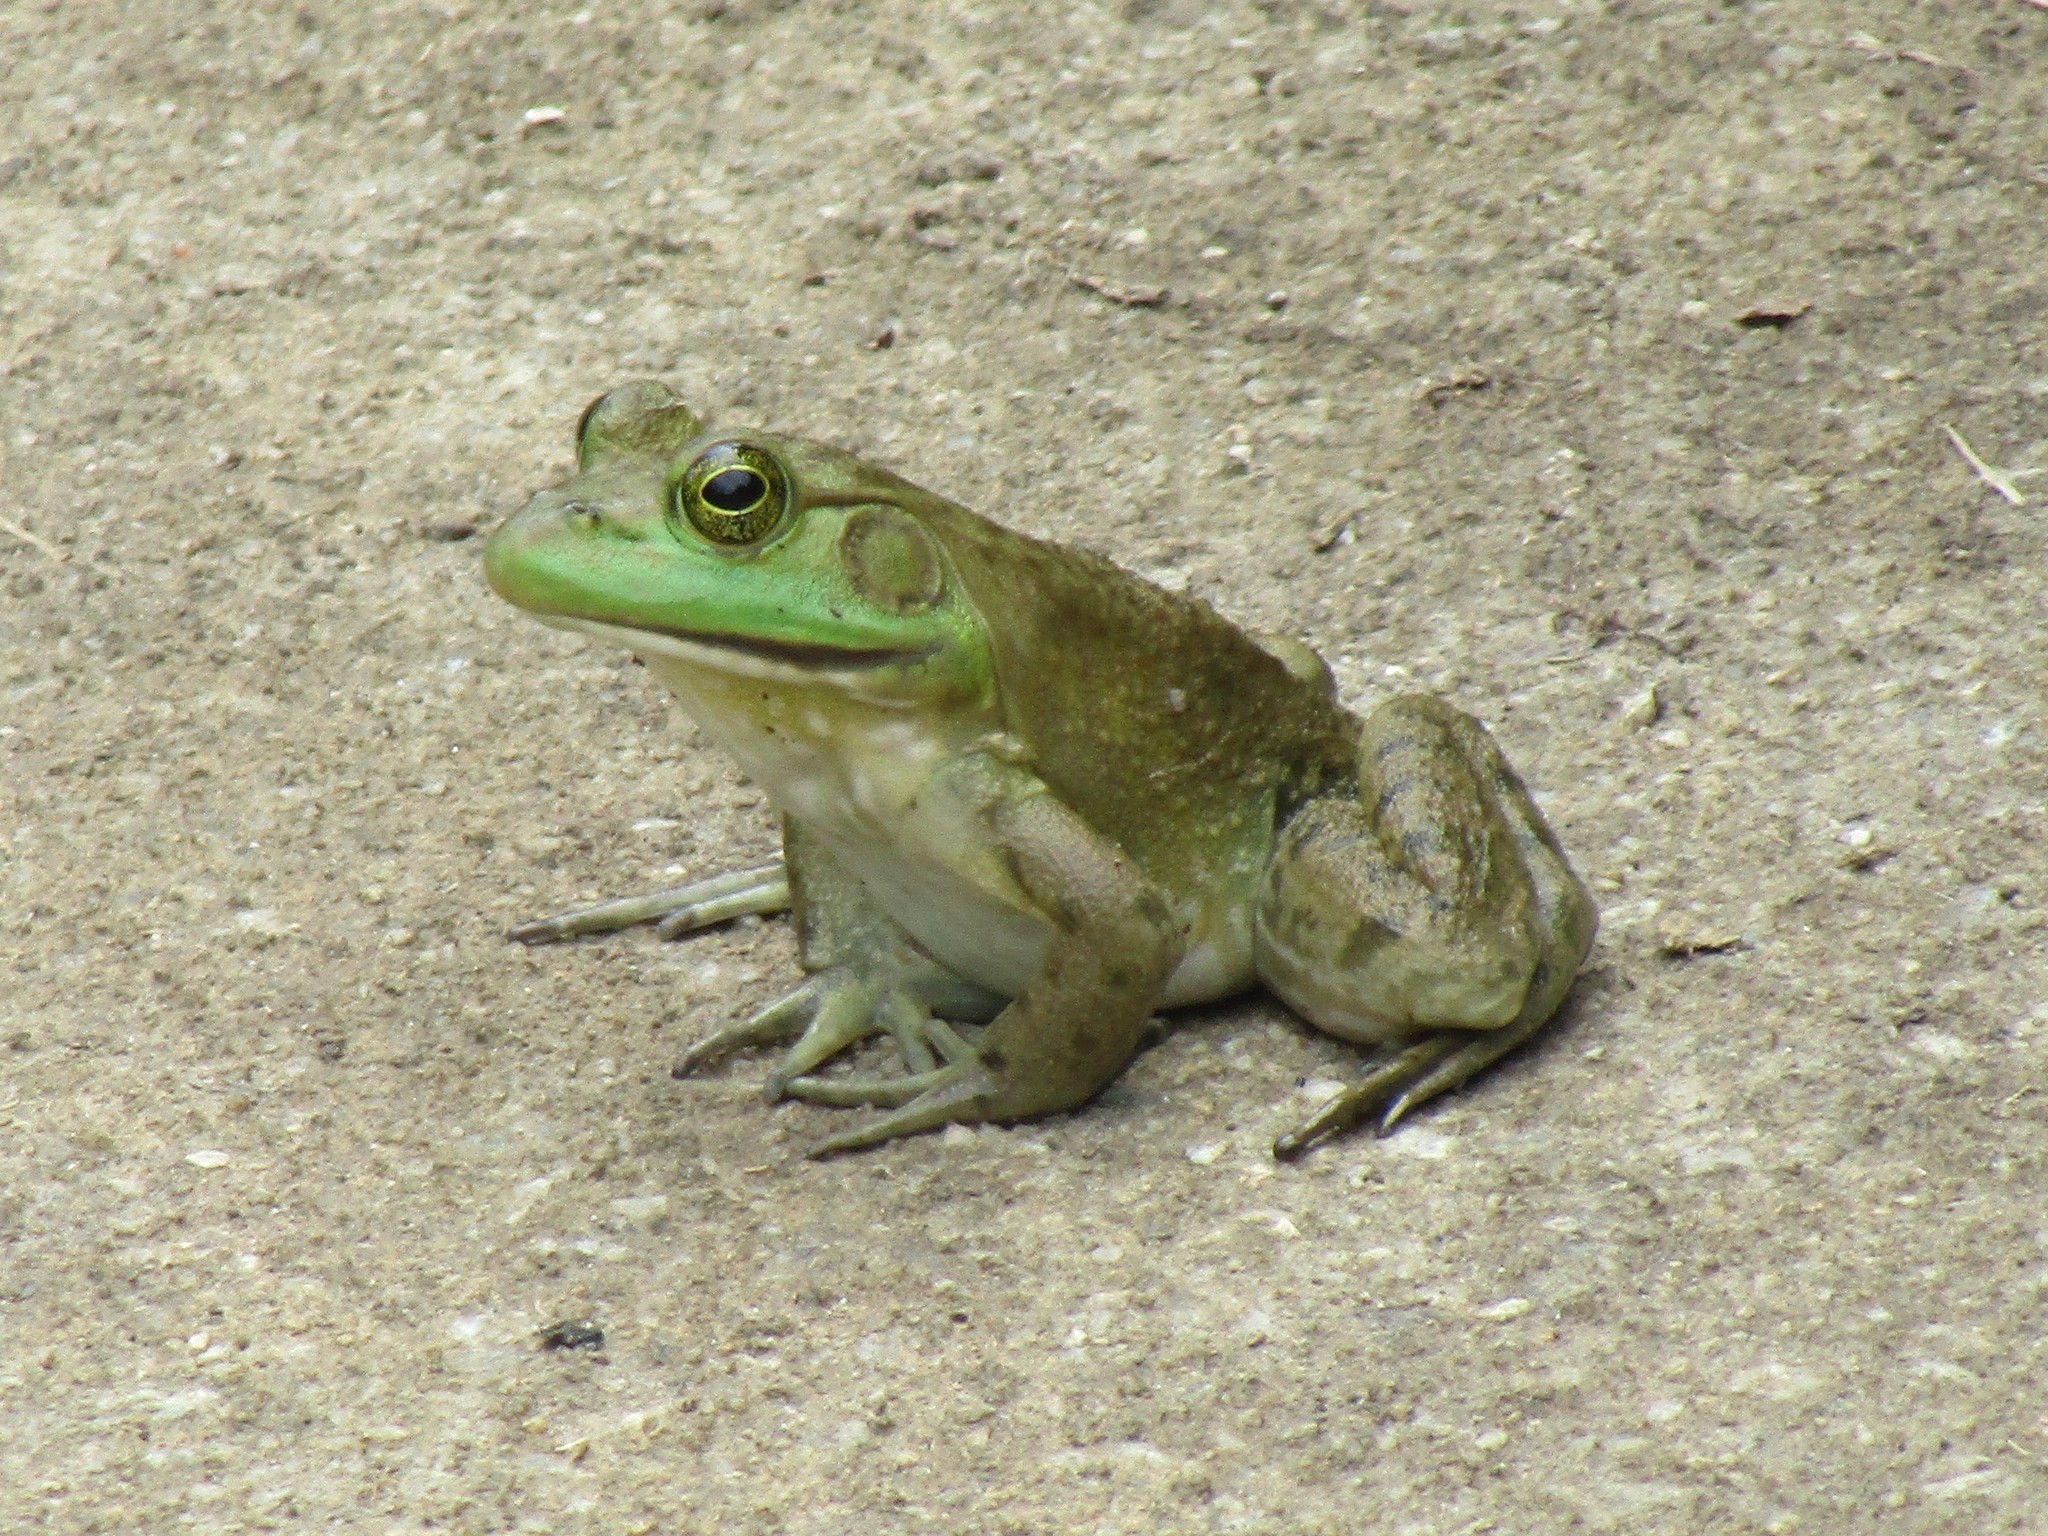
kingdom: Animalia
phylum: Chordata
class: Amphibia
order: Anura
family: Ranidae
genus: Lithobates
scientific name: Lithobates catesbeianus
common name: American bullfrog
